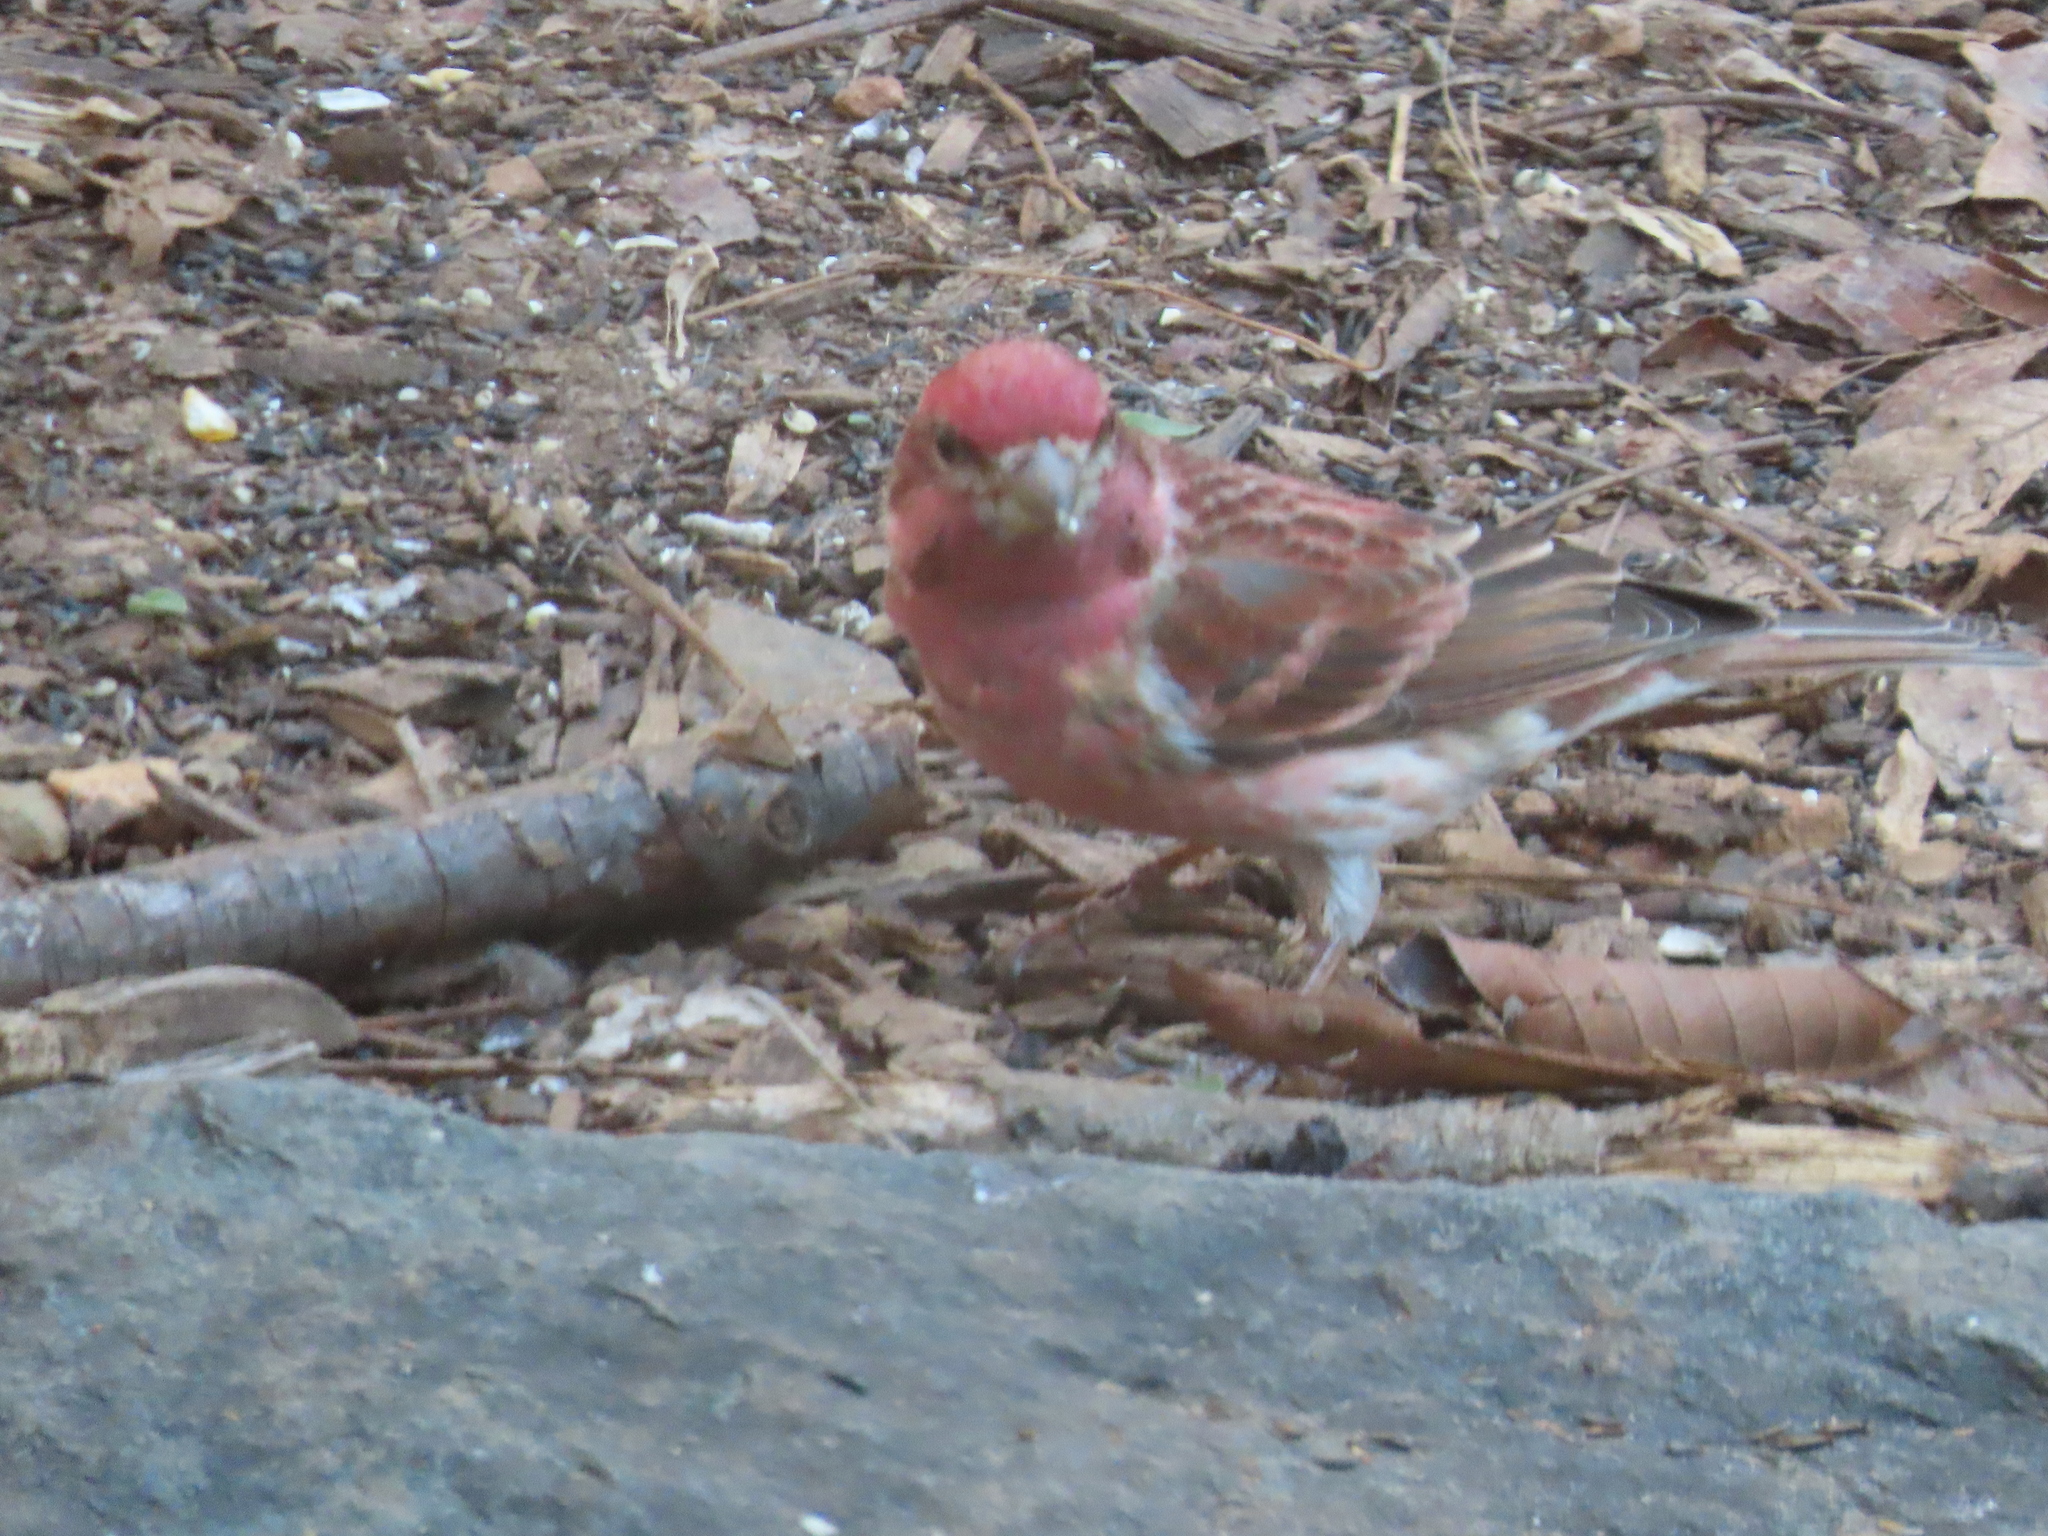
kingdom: Animalia
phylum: Chordata
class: Aves
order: Passeriformes
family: Fringillidae
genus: Haemorhous
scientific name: Haemorhous purpureus
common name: Purple finch
